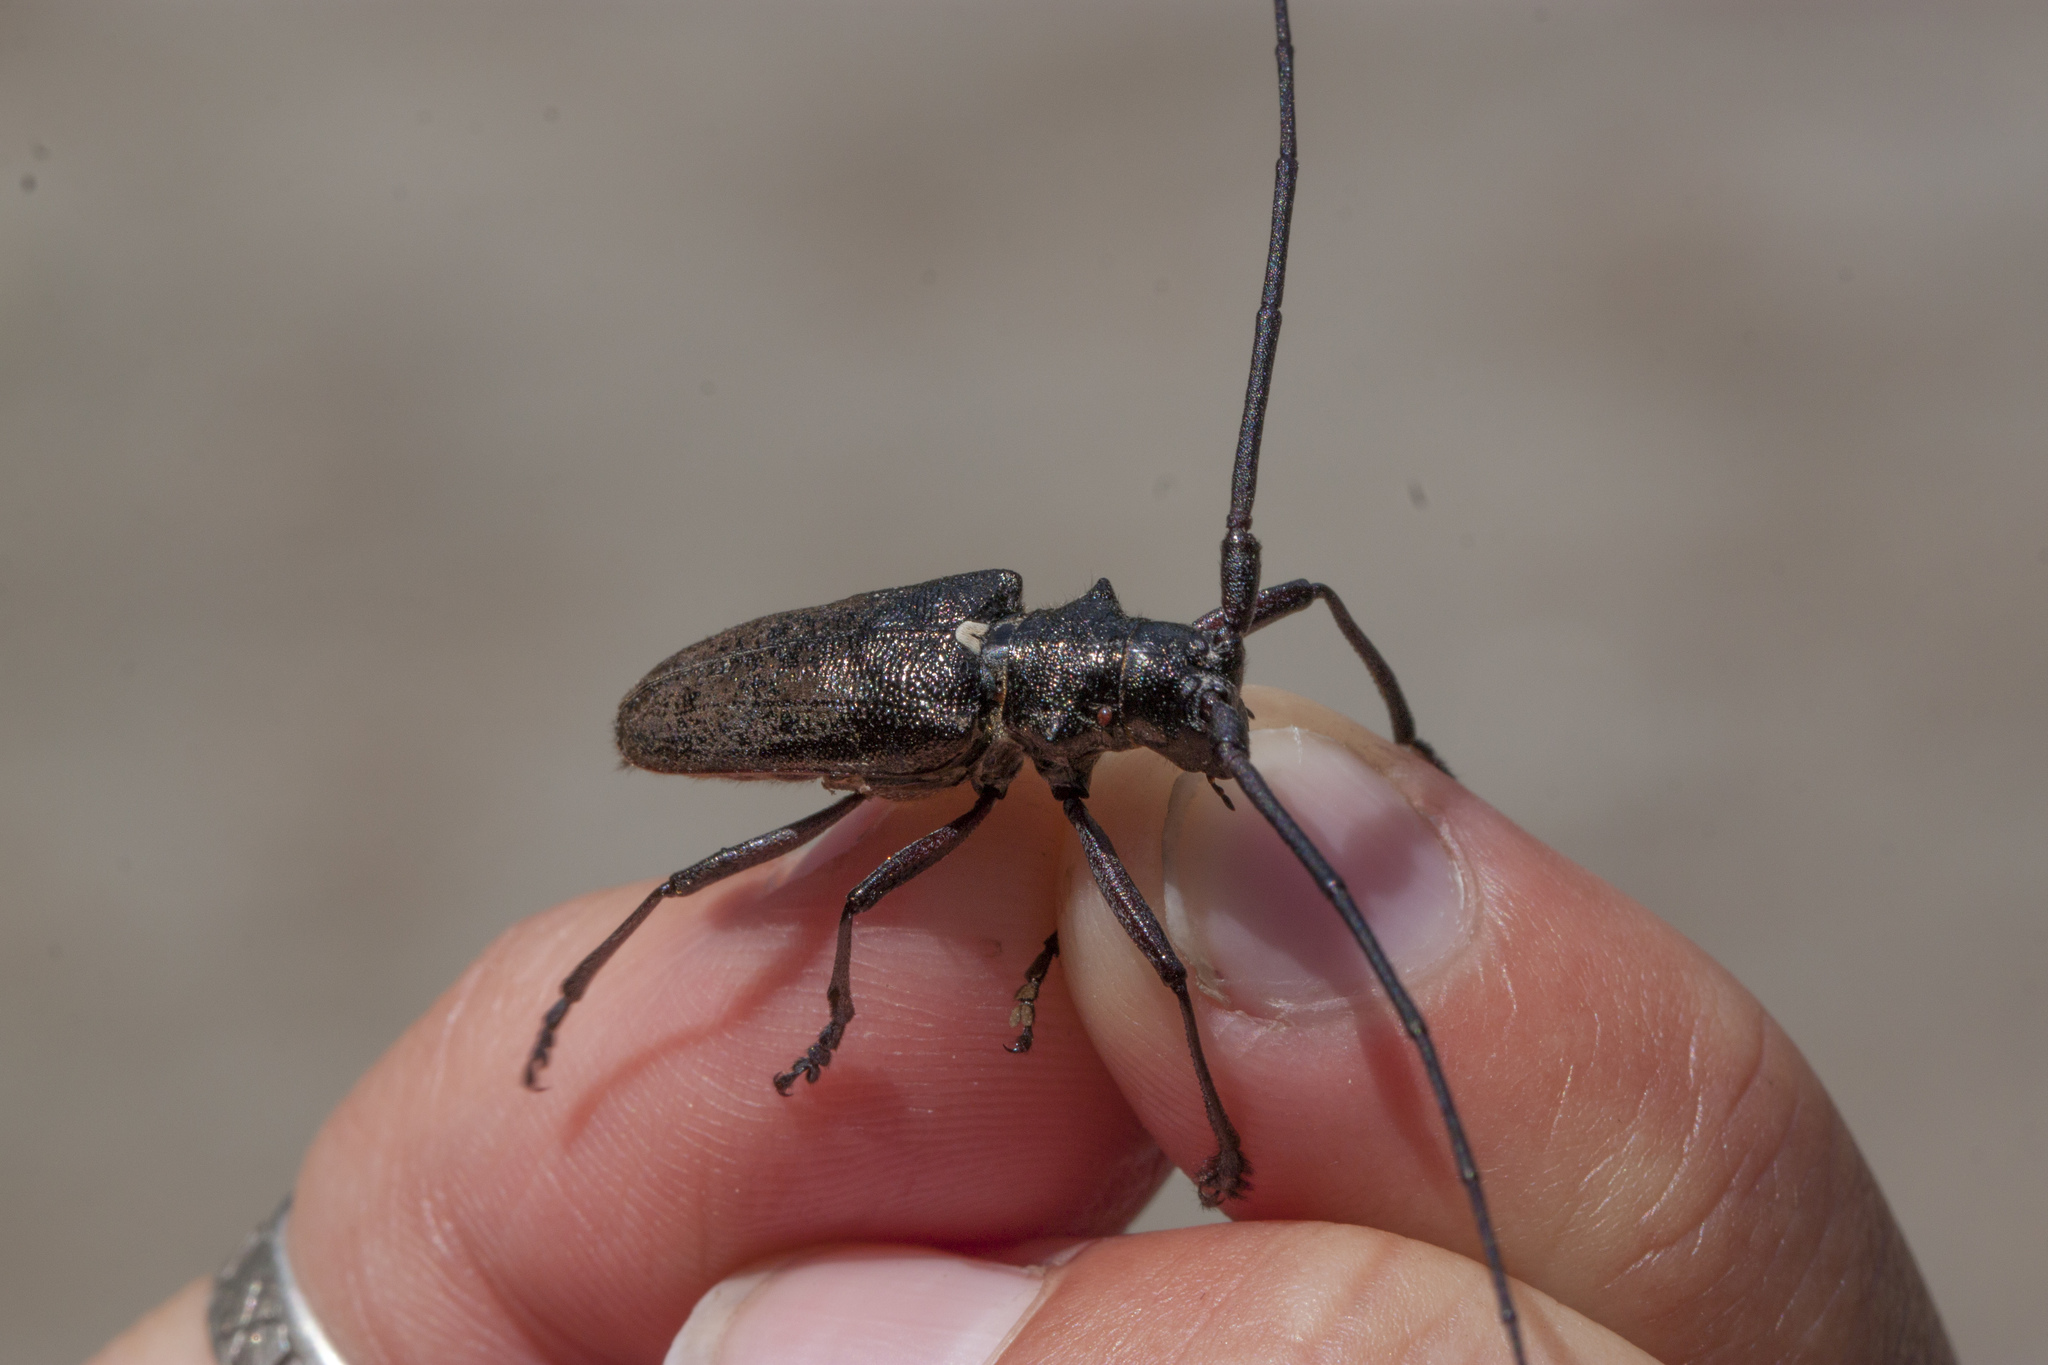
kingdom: Animalia
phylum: Arthropoda
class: Insecta
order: Coleoptera
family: Cerambycidae
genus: Monochamus
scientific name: Monochamus scutellatus
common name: White-spotted sawyer beetle
